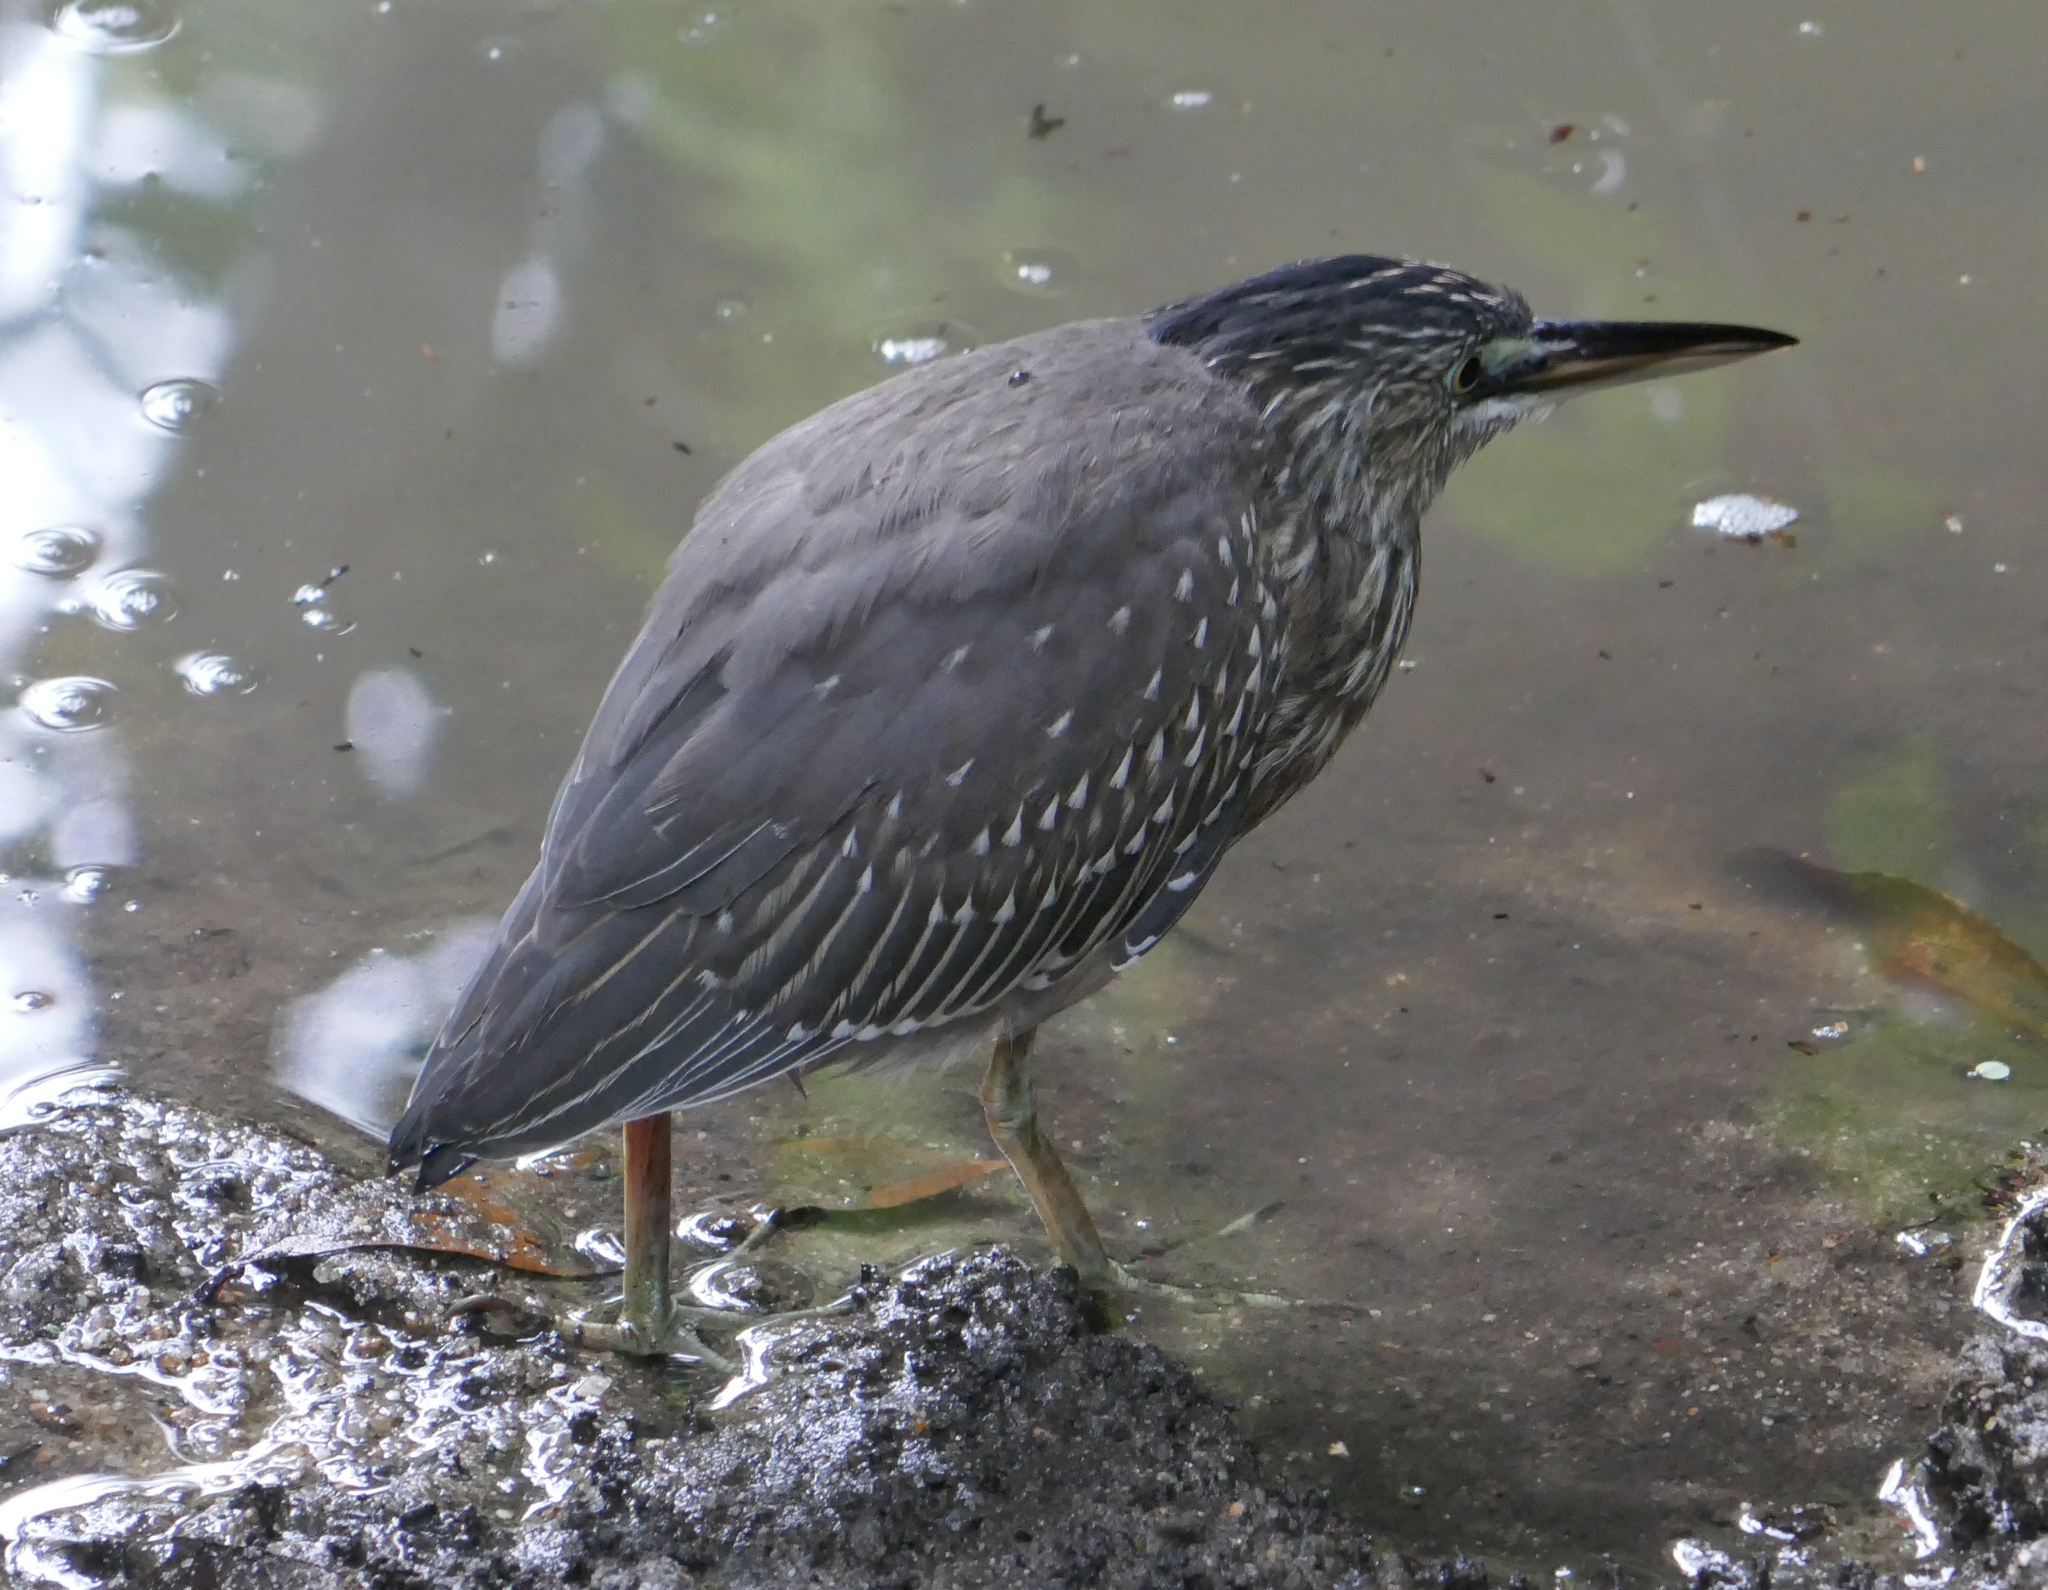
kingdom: Animalia
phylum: Chordata
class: Aves
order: Pelecaniformes
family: Ardeidae
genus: Butorides
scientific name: Butorides striata
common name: Striated heron
